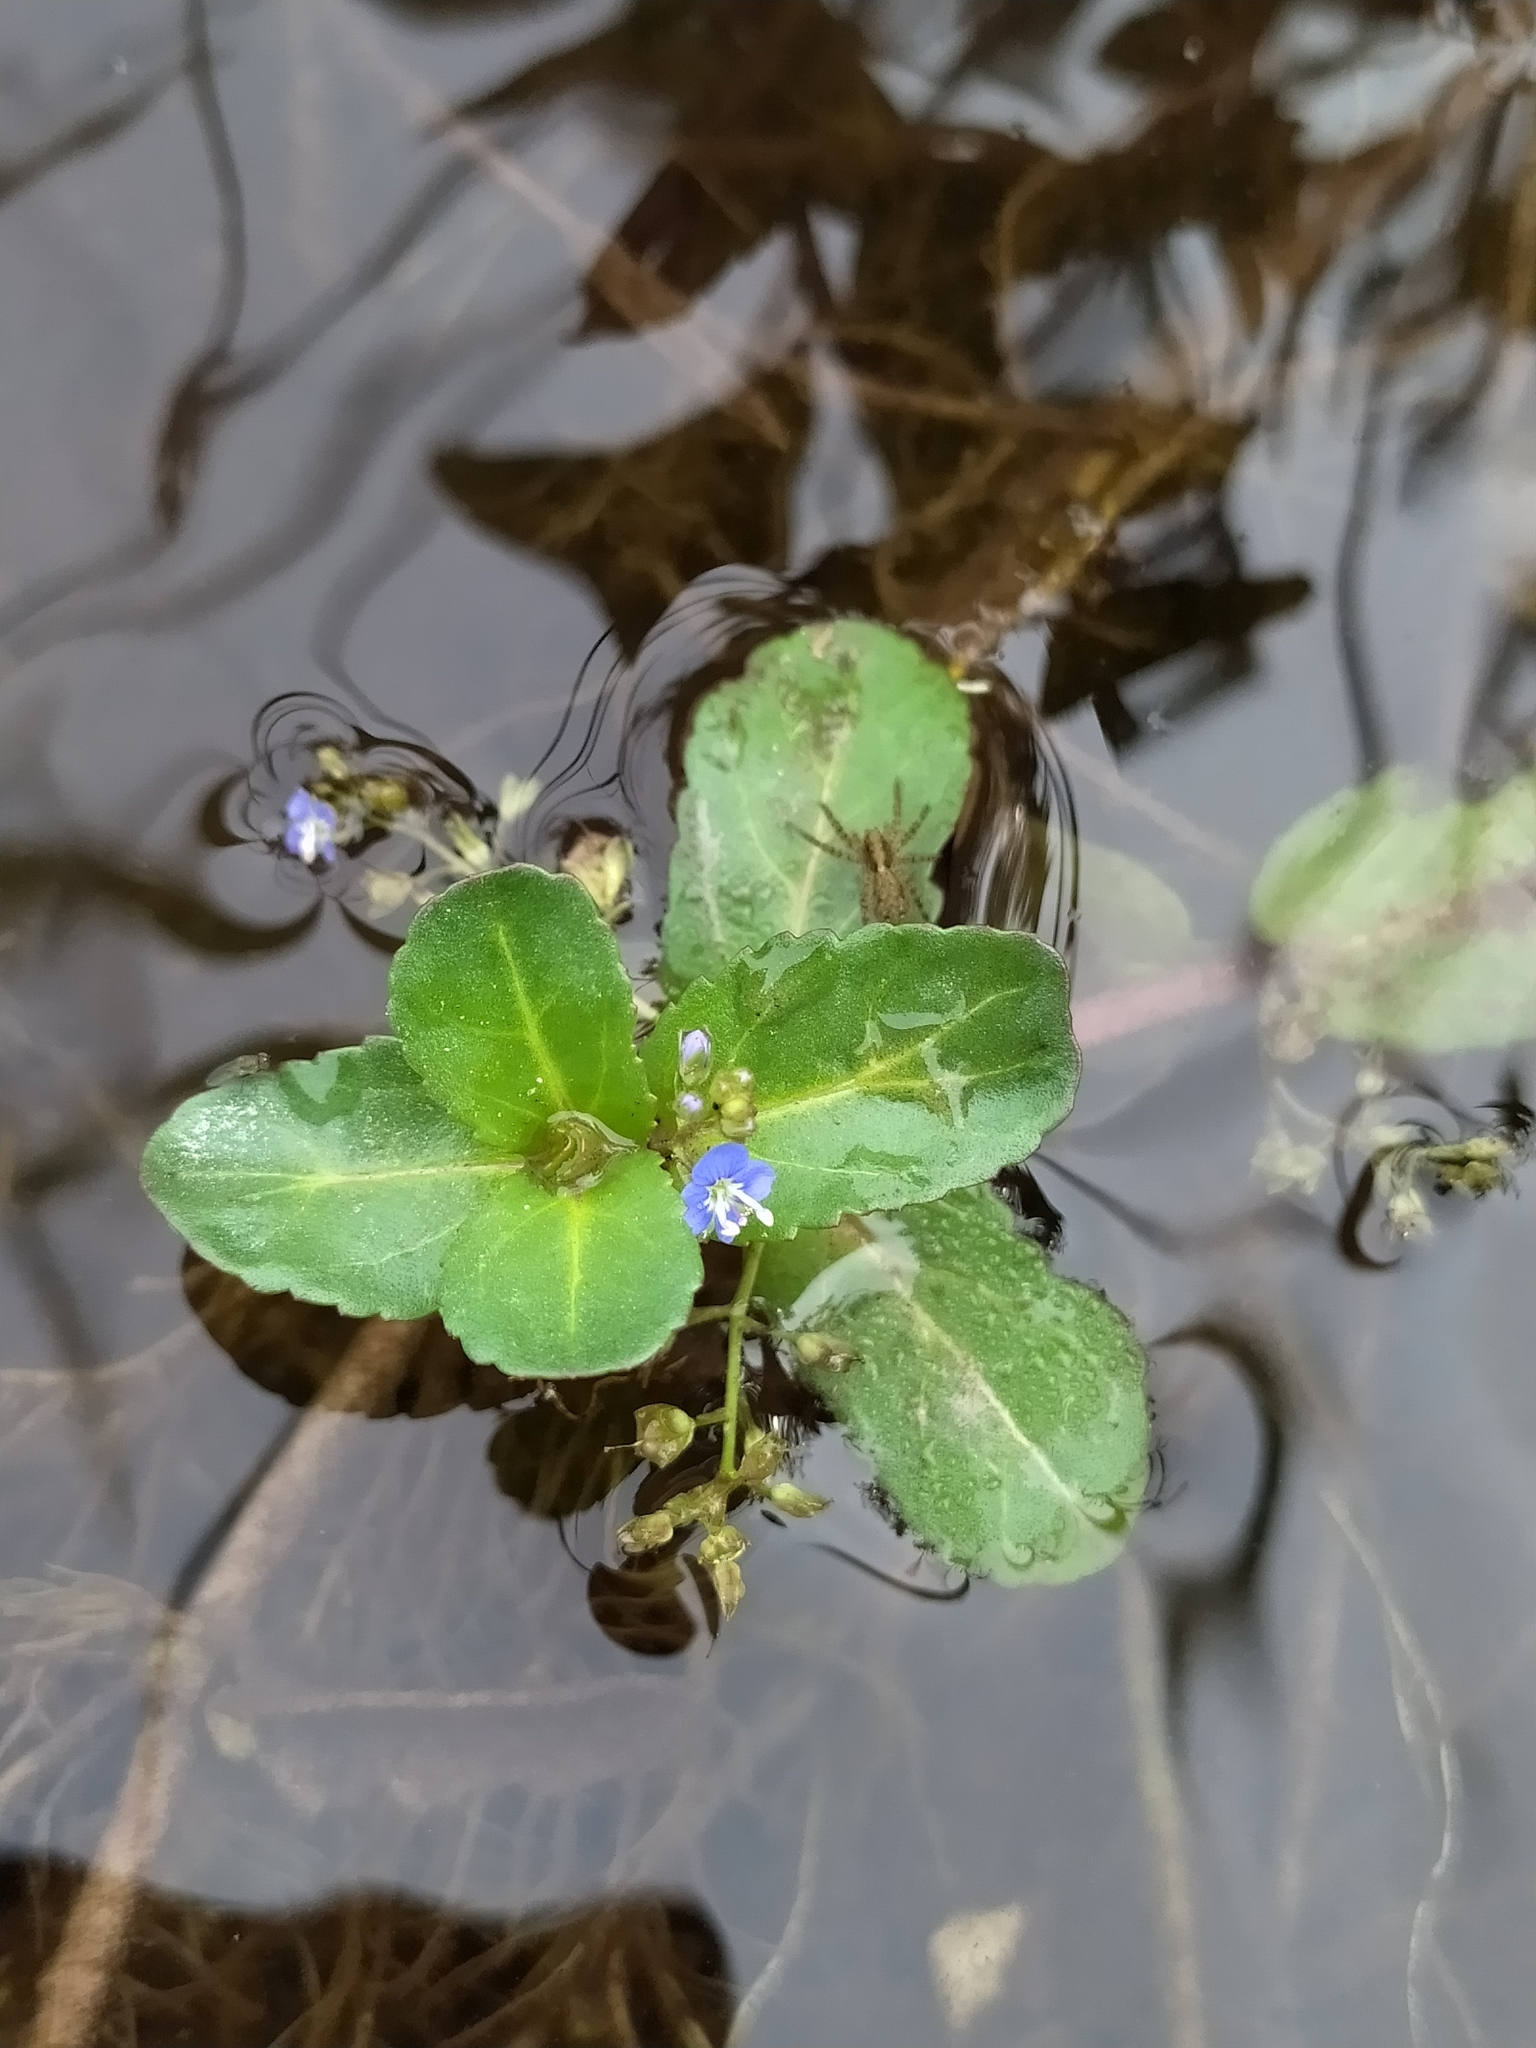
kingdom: Plantae
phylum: Tracheophyta
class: Magnoliopsida
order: Lamiales
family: Plantaginaceae
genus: Veronica
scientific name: Veronica beccabunga
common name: Brooklime
